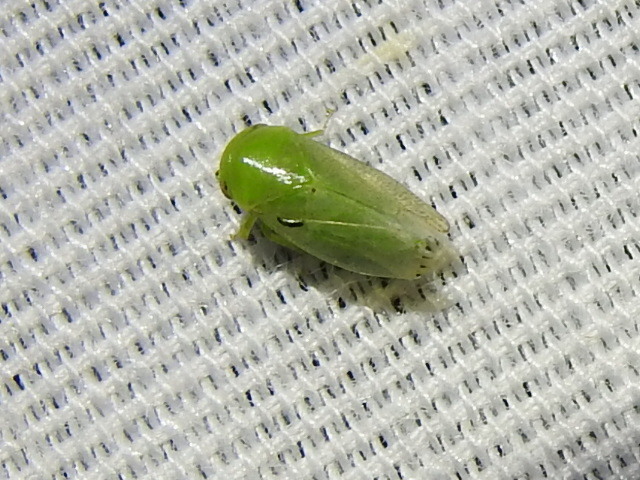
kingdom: Animalia
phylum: Arthropoda
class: Insecta
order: Hemiptera
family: Cicadellidae
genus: Penestragania
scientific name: Penestragania robusta
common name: Robust leafhopper
